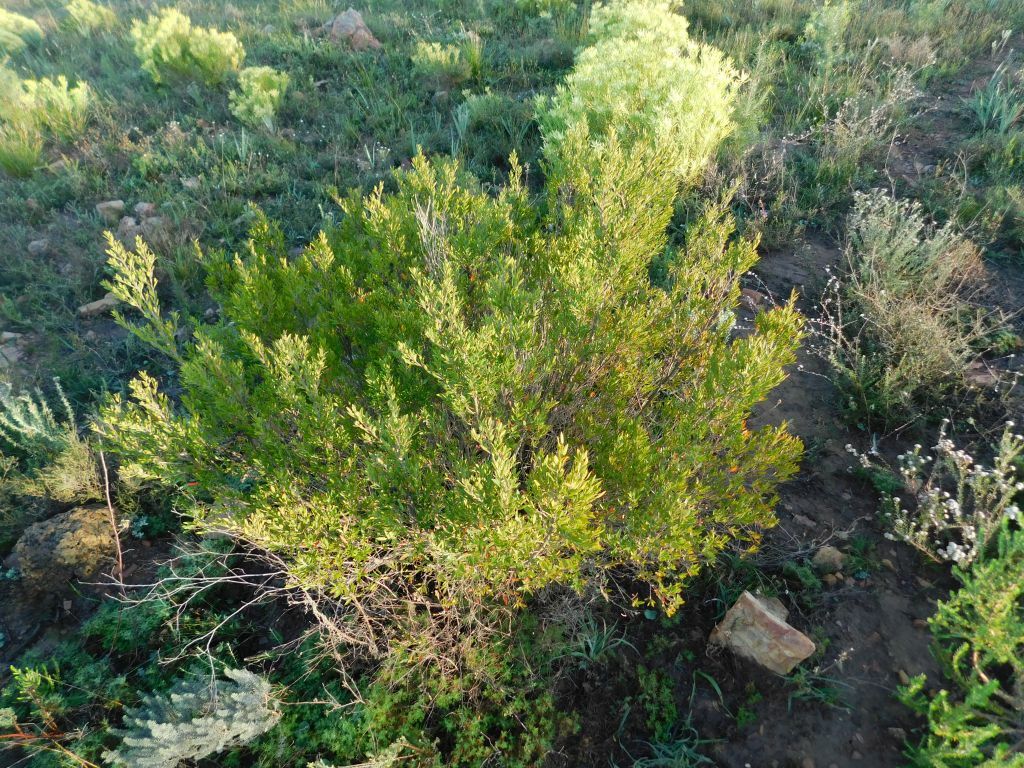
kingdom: Plantae
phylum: Tracheophyta
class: Magnoliopsida
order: Ericales
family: Ebenaceae
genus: Diospyros
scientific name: Diospyros glabra
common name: Fynbos star apple
